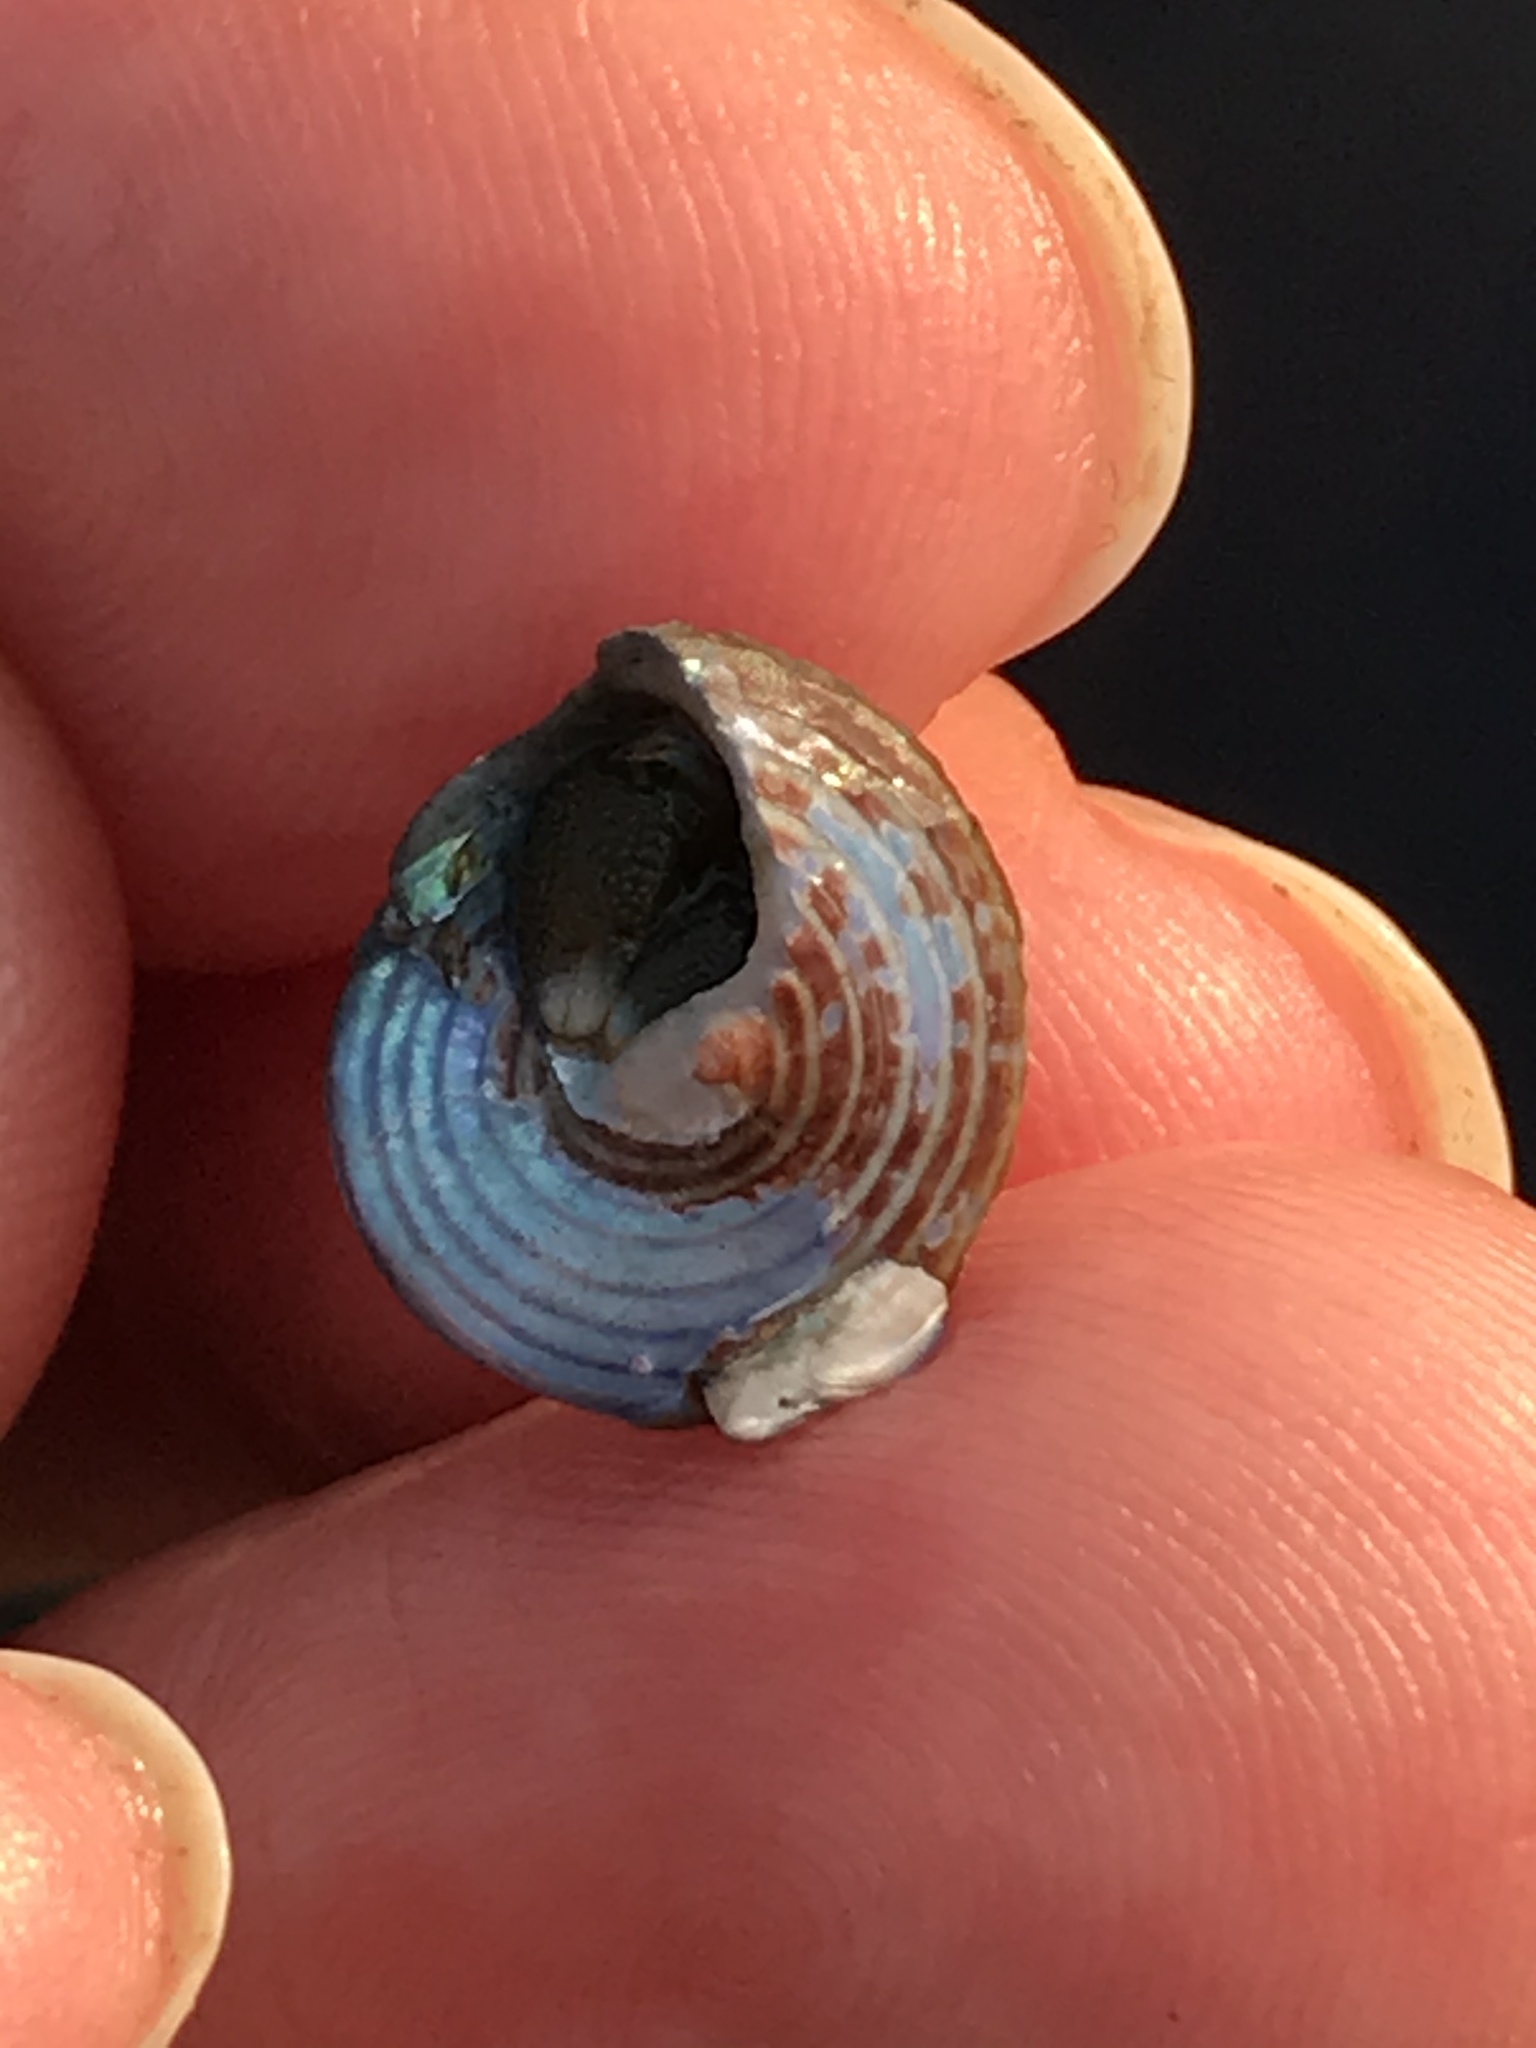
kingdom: Animalia
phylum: Mollusca
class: Gastropoda
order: Trochida
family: Calliostomatidae
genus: Calliostoma
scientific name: Calliostoma ligatum
